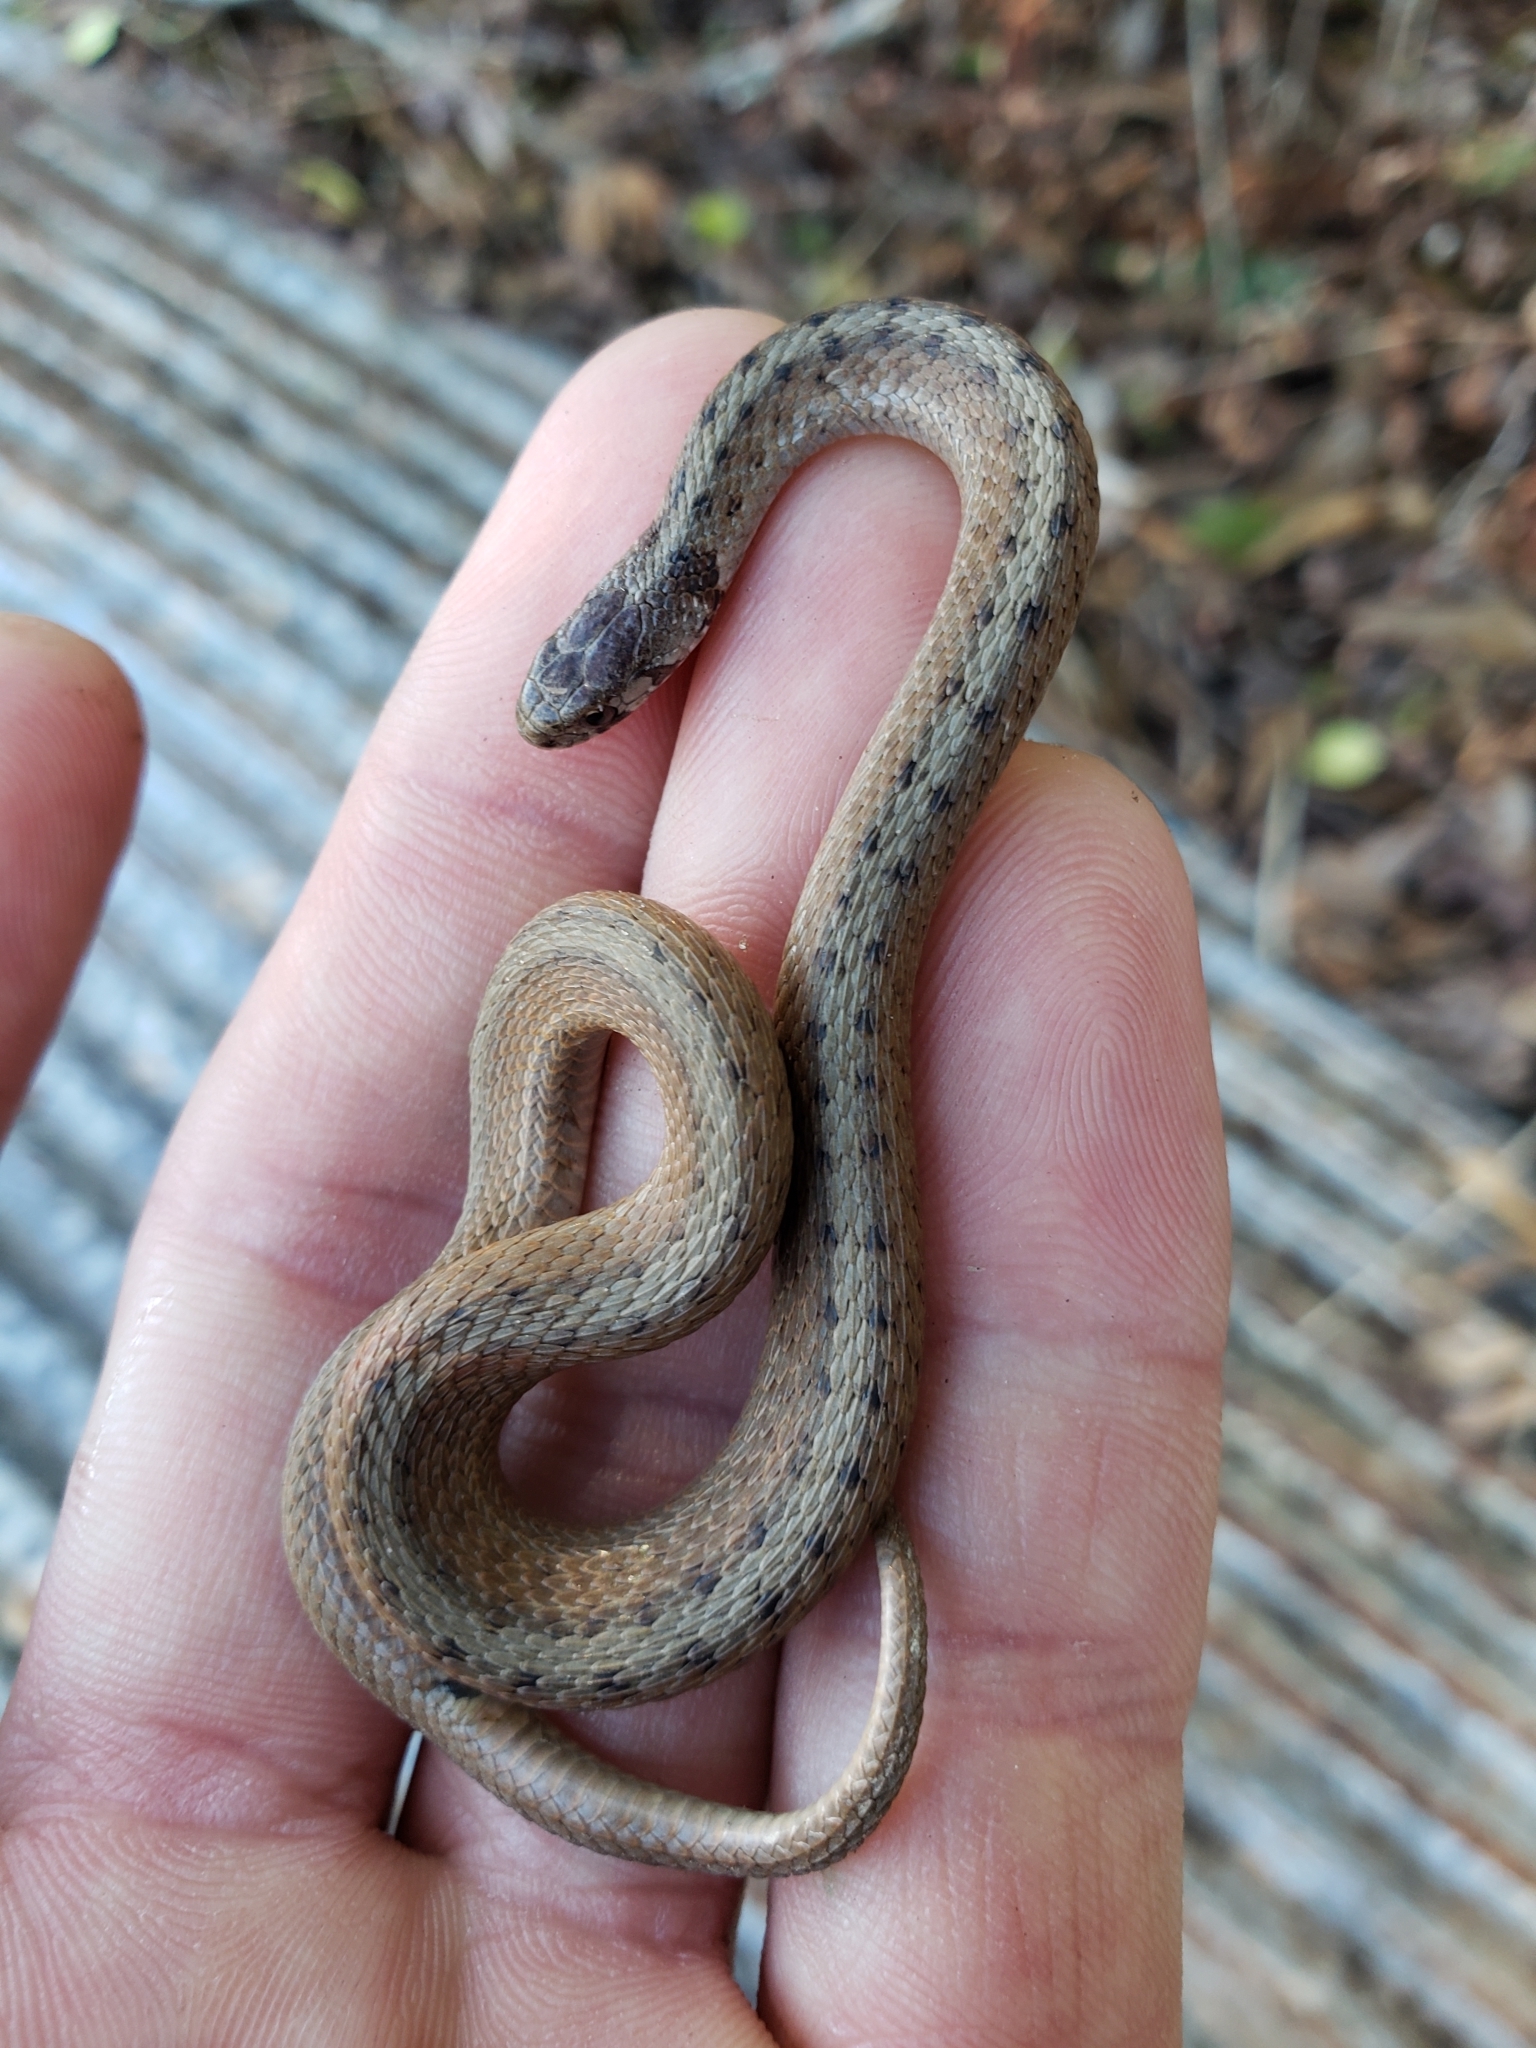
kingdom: Animalia
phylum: Chordata
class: Squamata
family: Colubridae
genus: Storeria
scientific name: Storeria dekayi
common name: (dekay’s) brown snake
